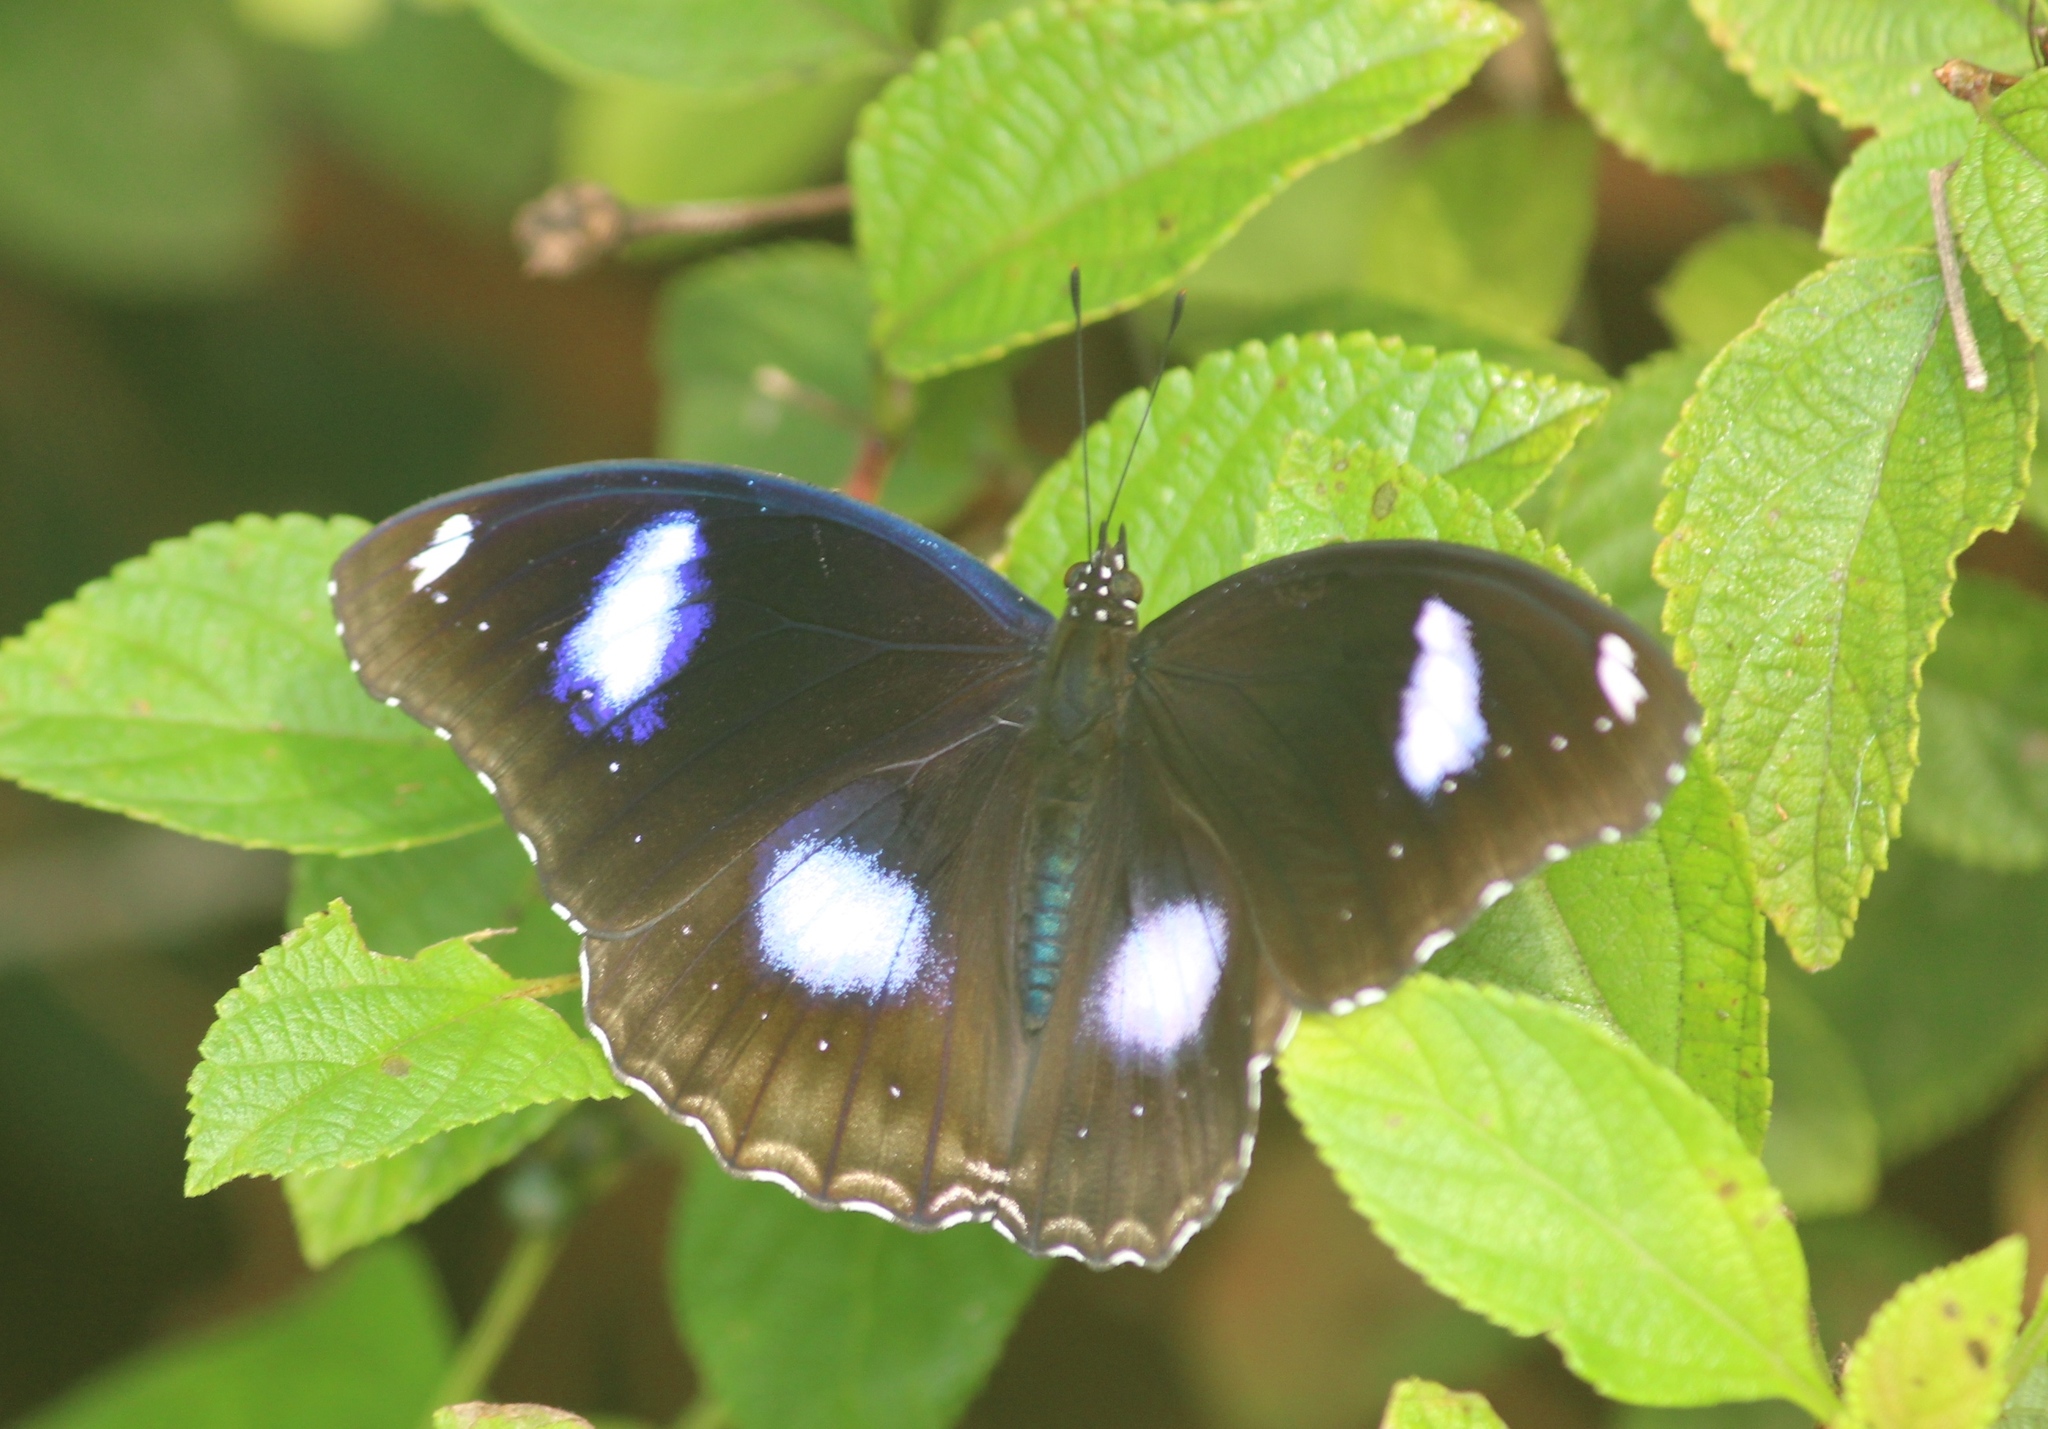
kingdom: Animalia
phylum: Arthropoda
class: Insecta
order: Lepidoptera
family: Nymphalidae
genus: Hypolimnas
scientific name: Hypolimnas bolina
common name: Great eggfly
